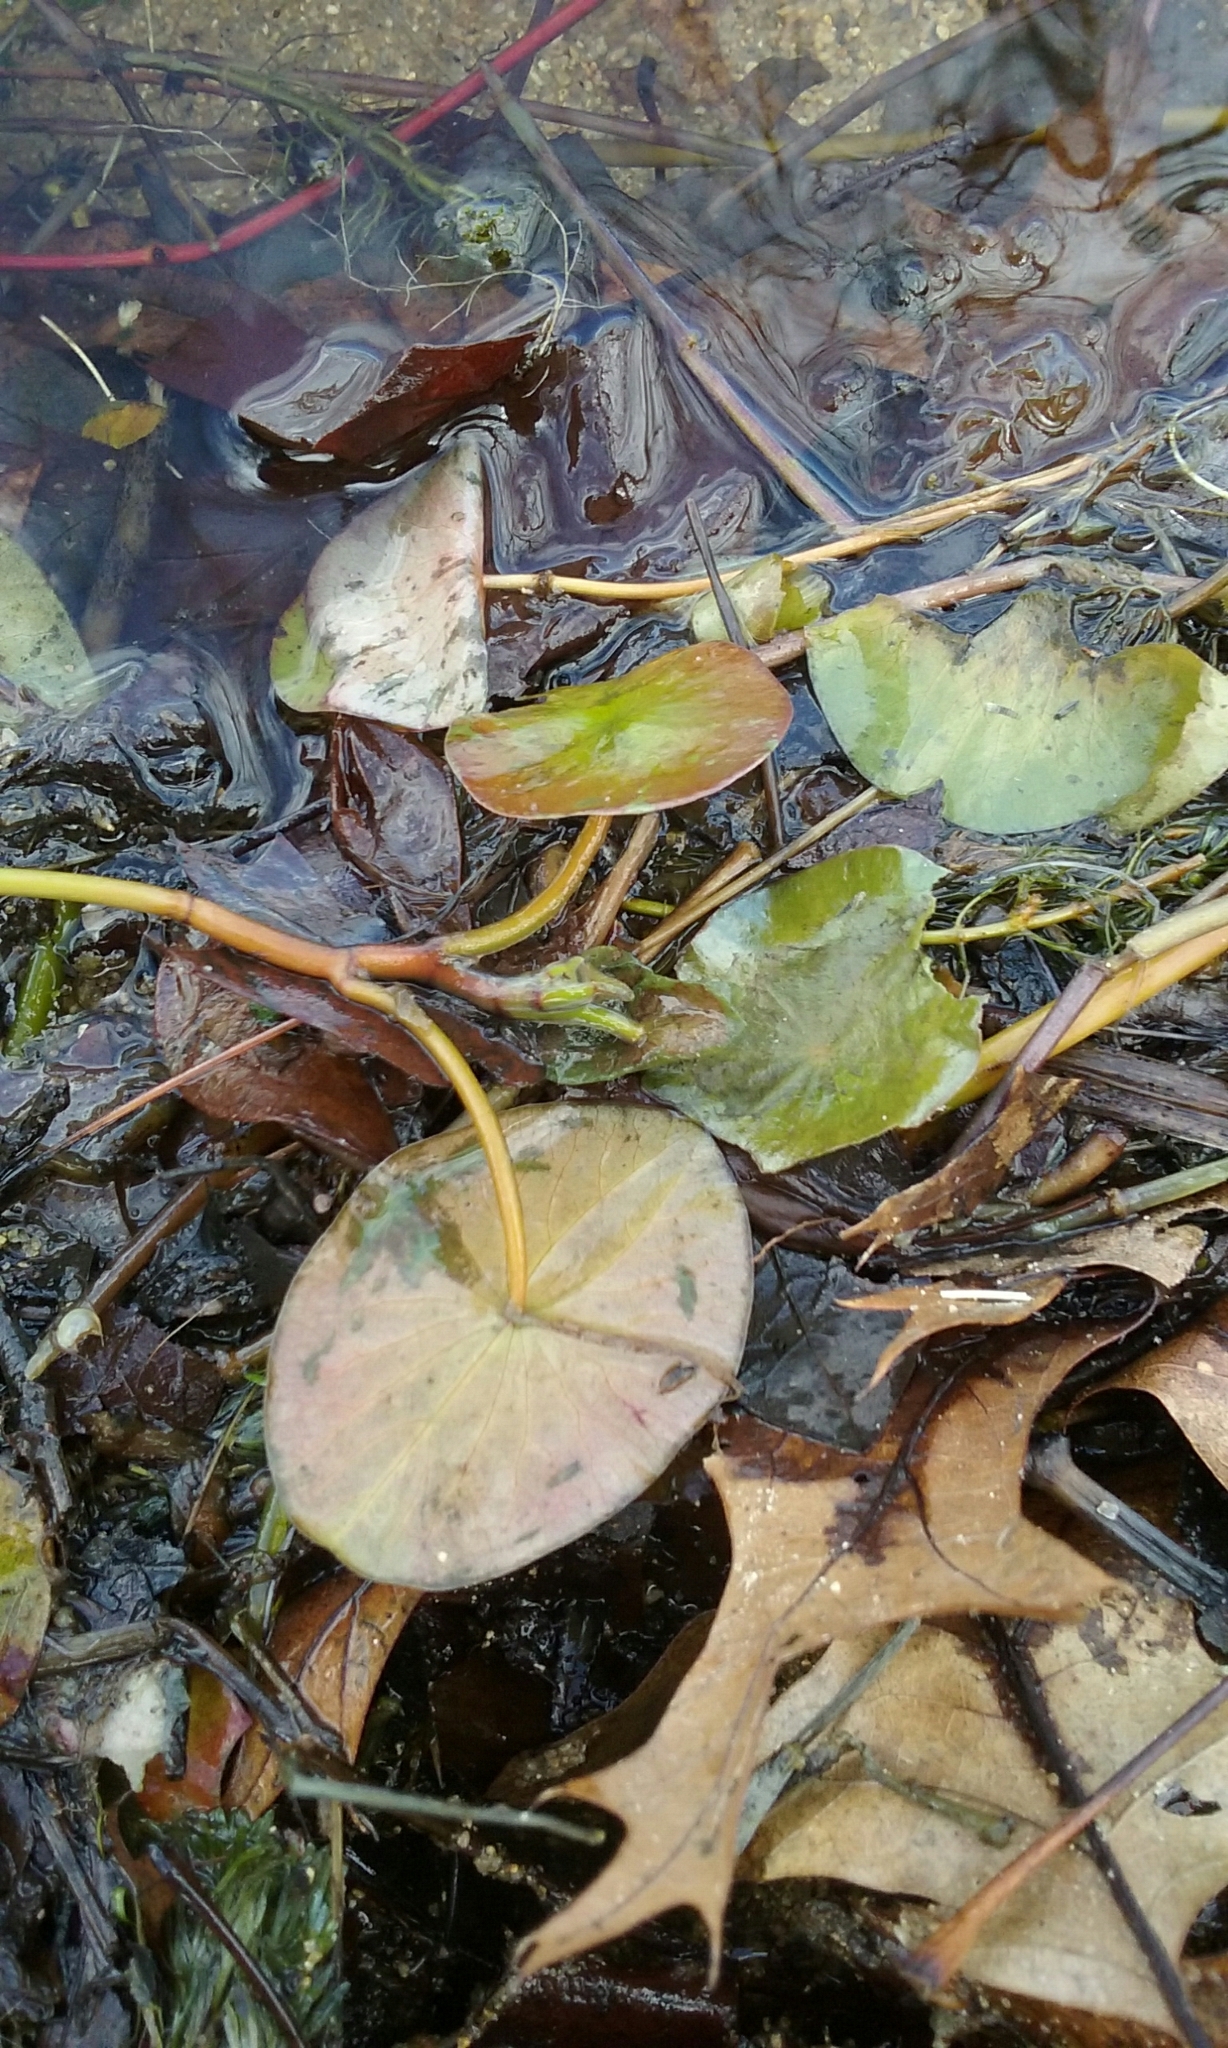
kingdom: Plantae
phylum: Tracheophyta
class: Magnoliopsida
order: Nymphaeales
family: Cabombaceae
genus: Brasenia
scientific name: Brasenia schreberi
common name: Water-shield
